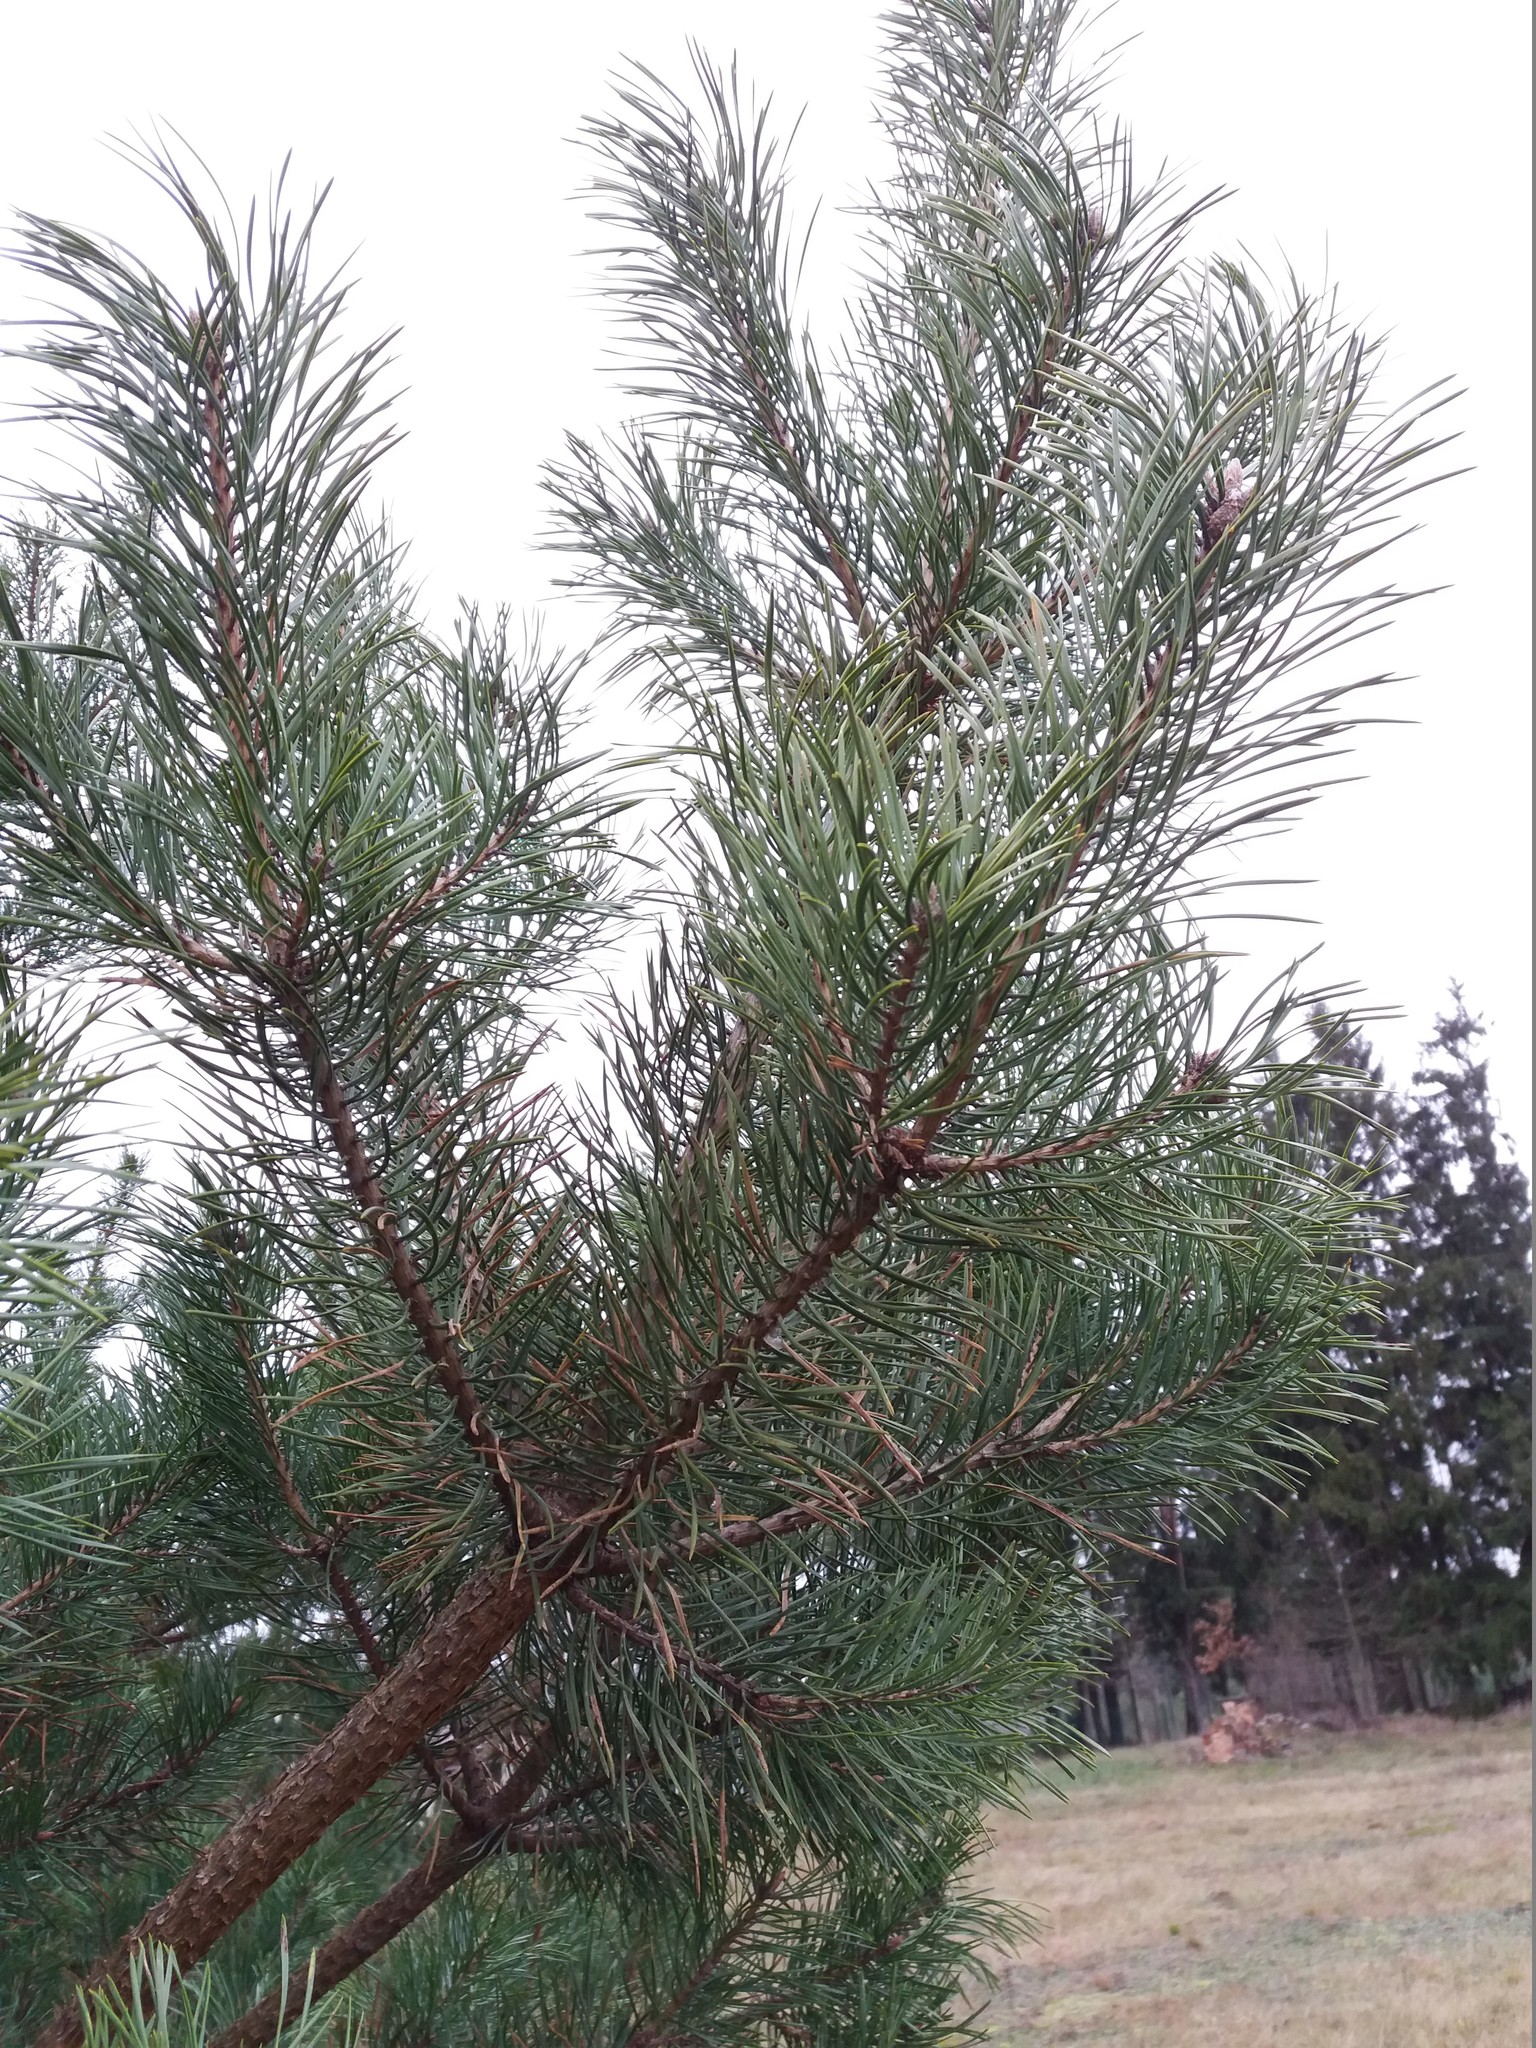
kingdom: Plantae
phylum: Tracheophyta
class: Pinopsida
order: Pinales
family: Pinaceae
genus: Pinus
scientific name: Pinus sylvestris
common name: Scots pine
